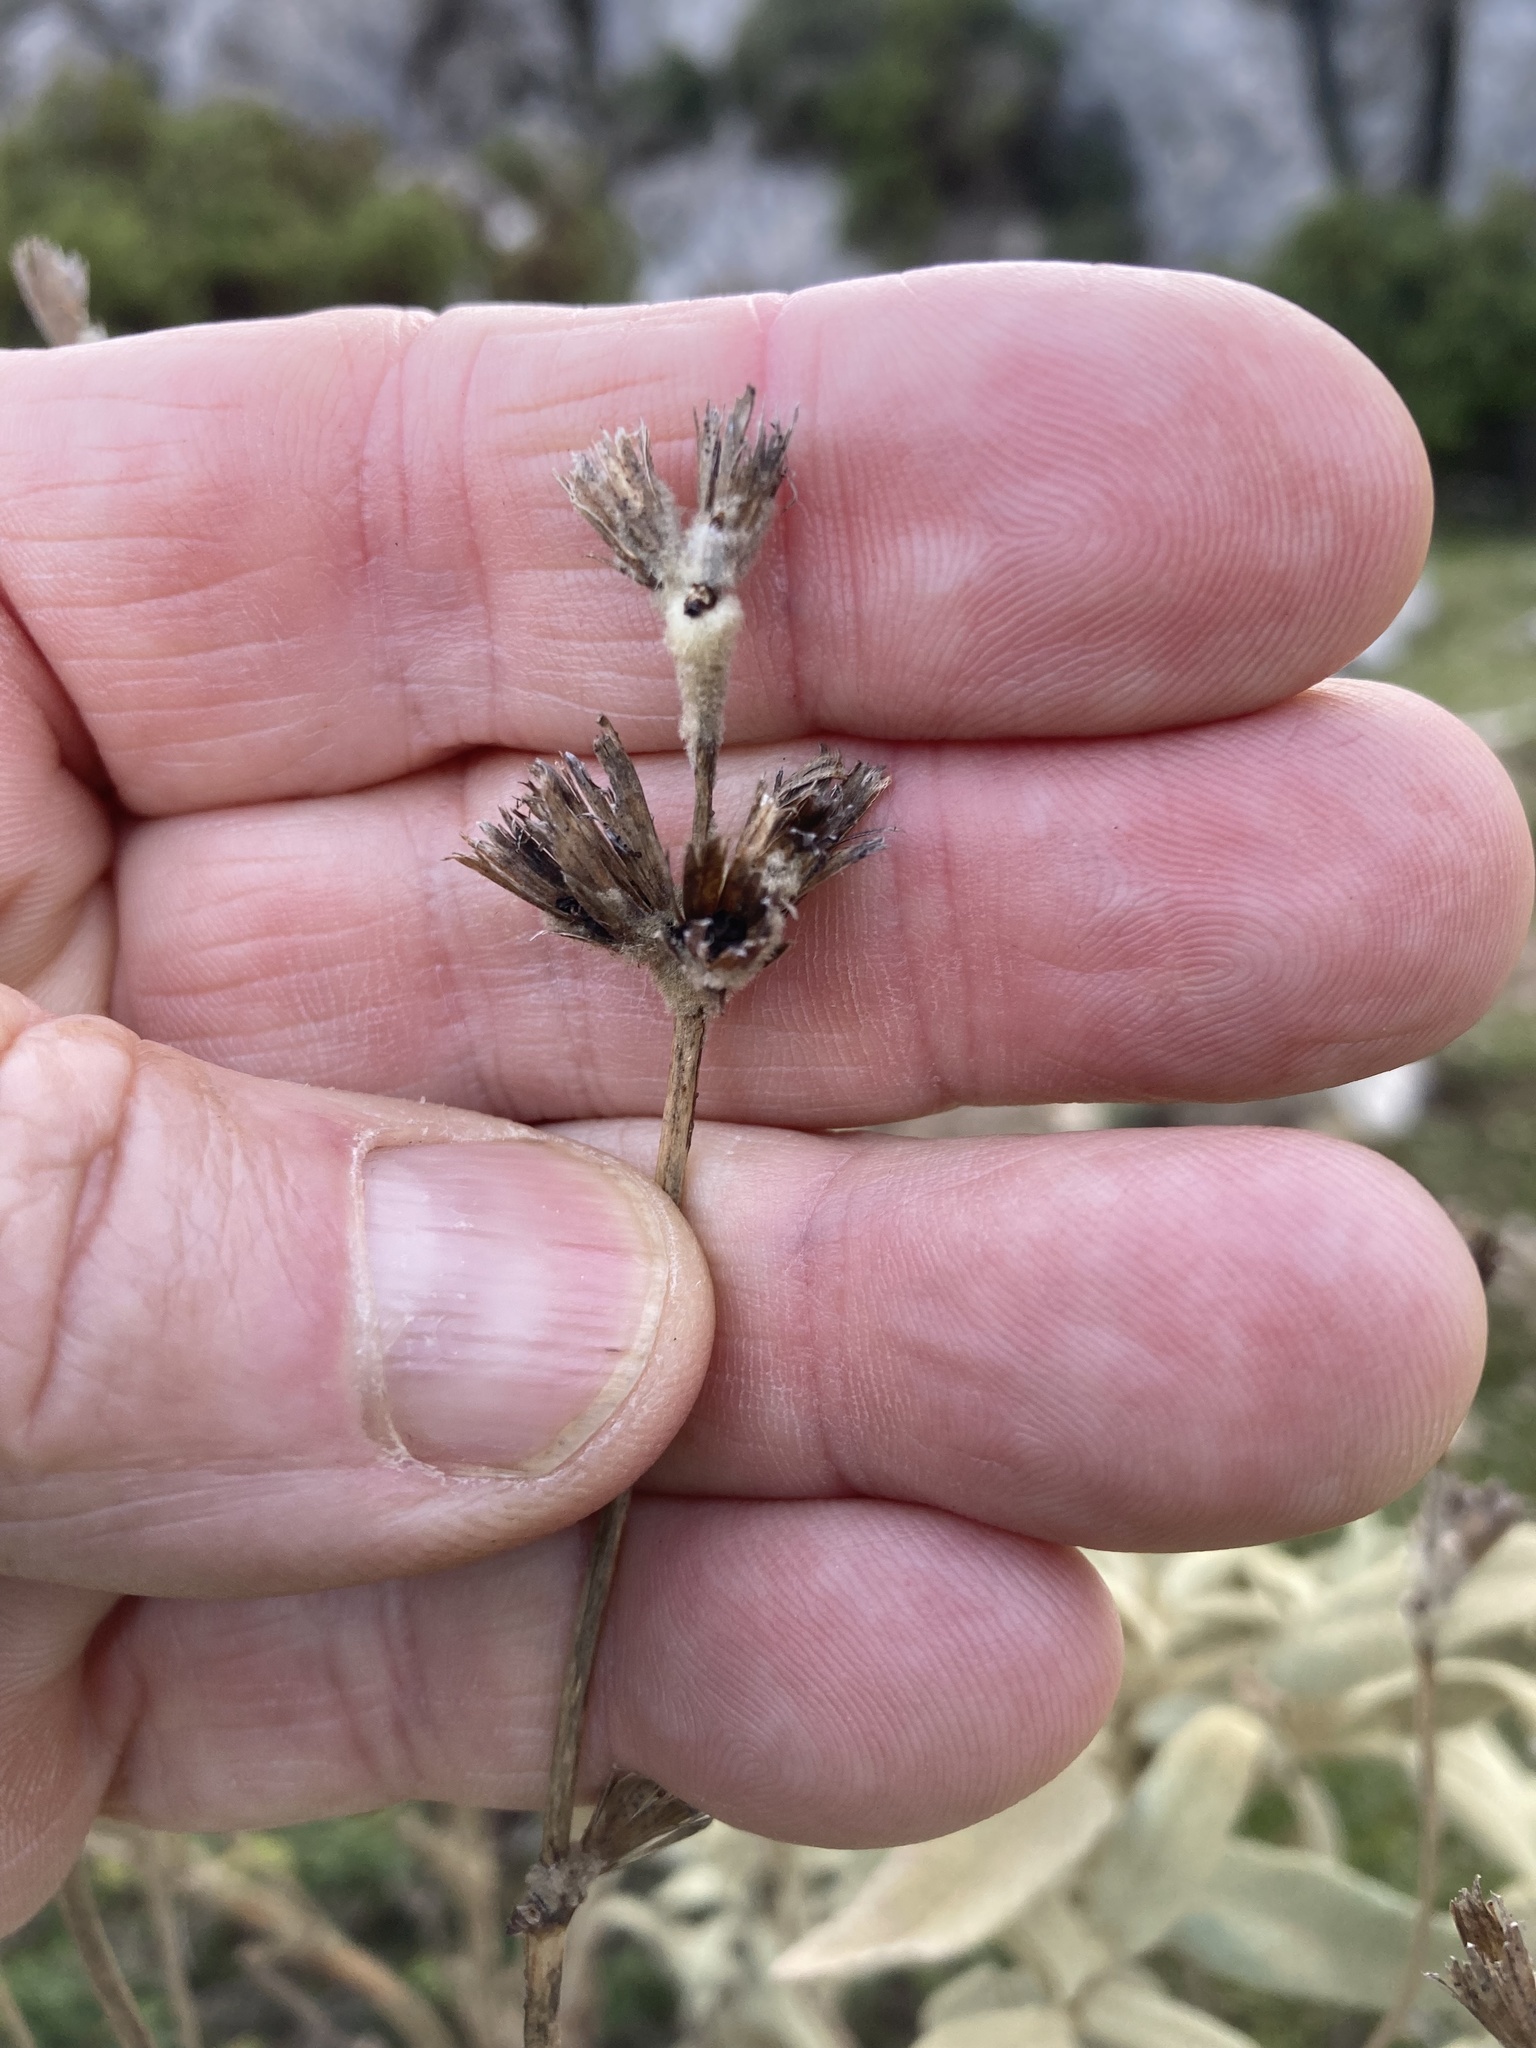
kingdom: Plantae
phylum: Tracheophyta
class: Magnoliopsida
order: Lamiales
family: Lamiaceae
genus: Phlomis
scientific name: Phlomis italica
